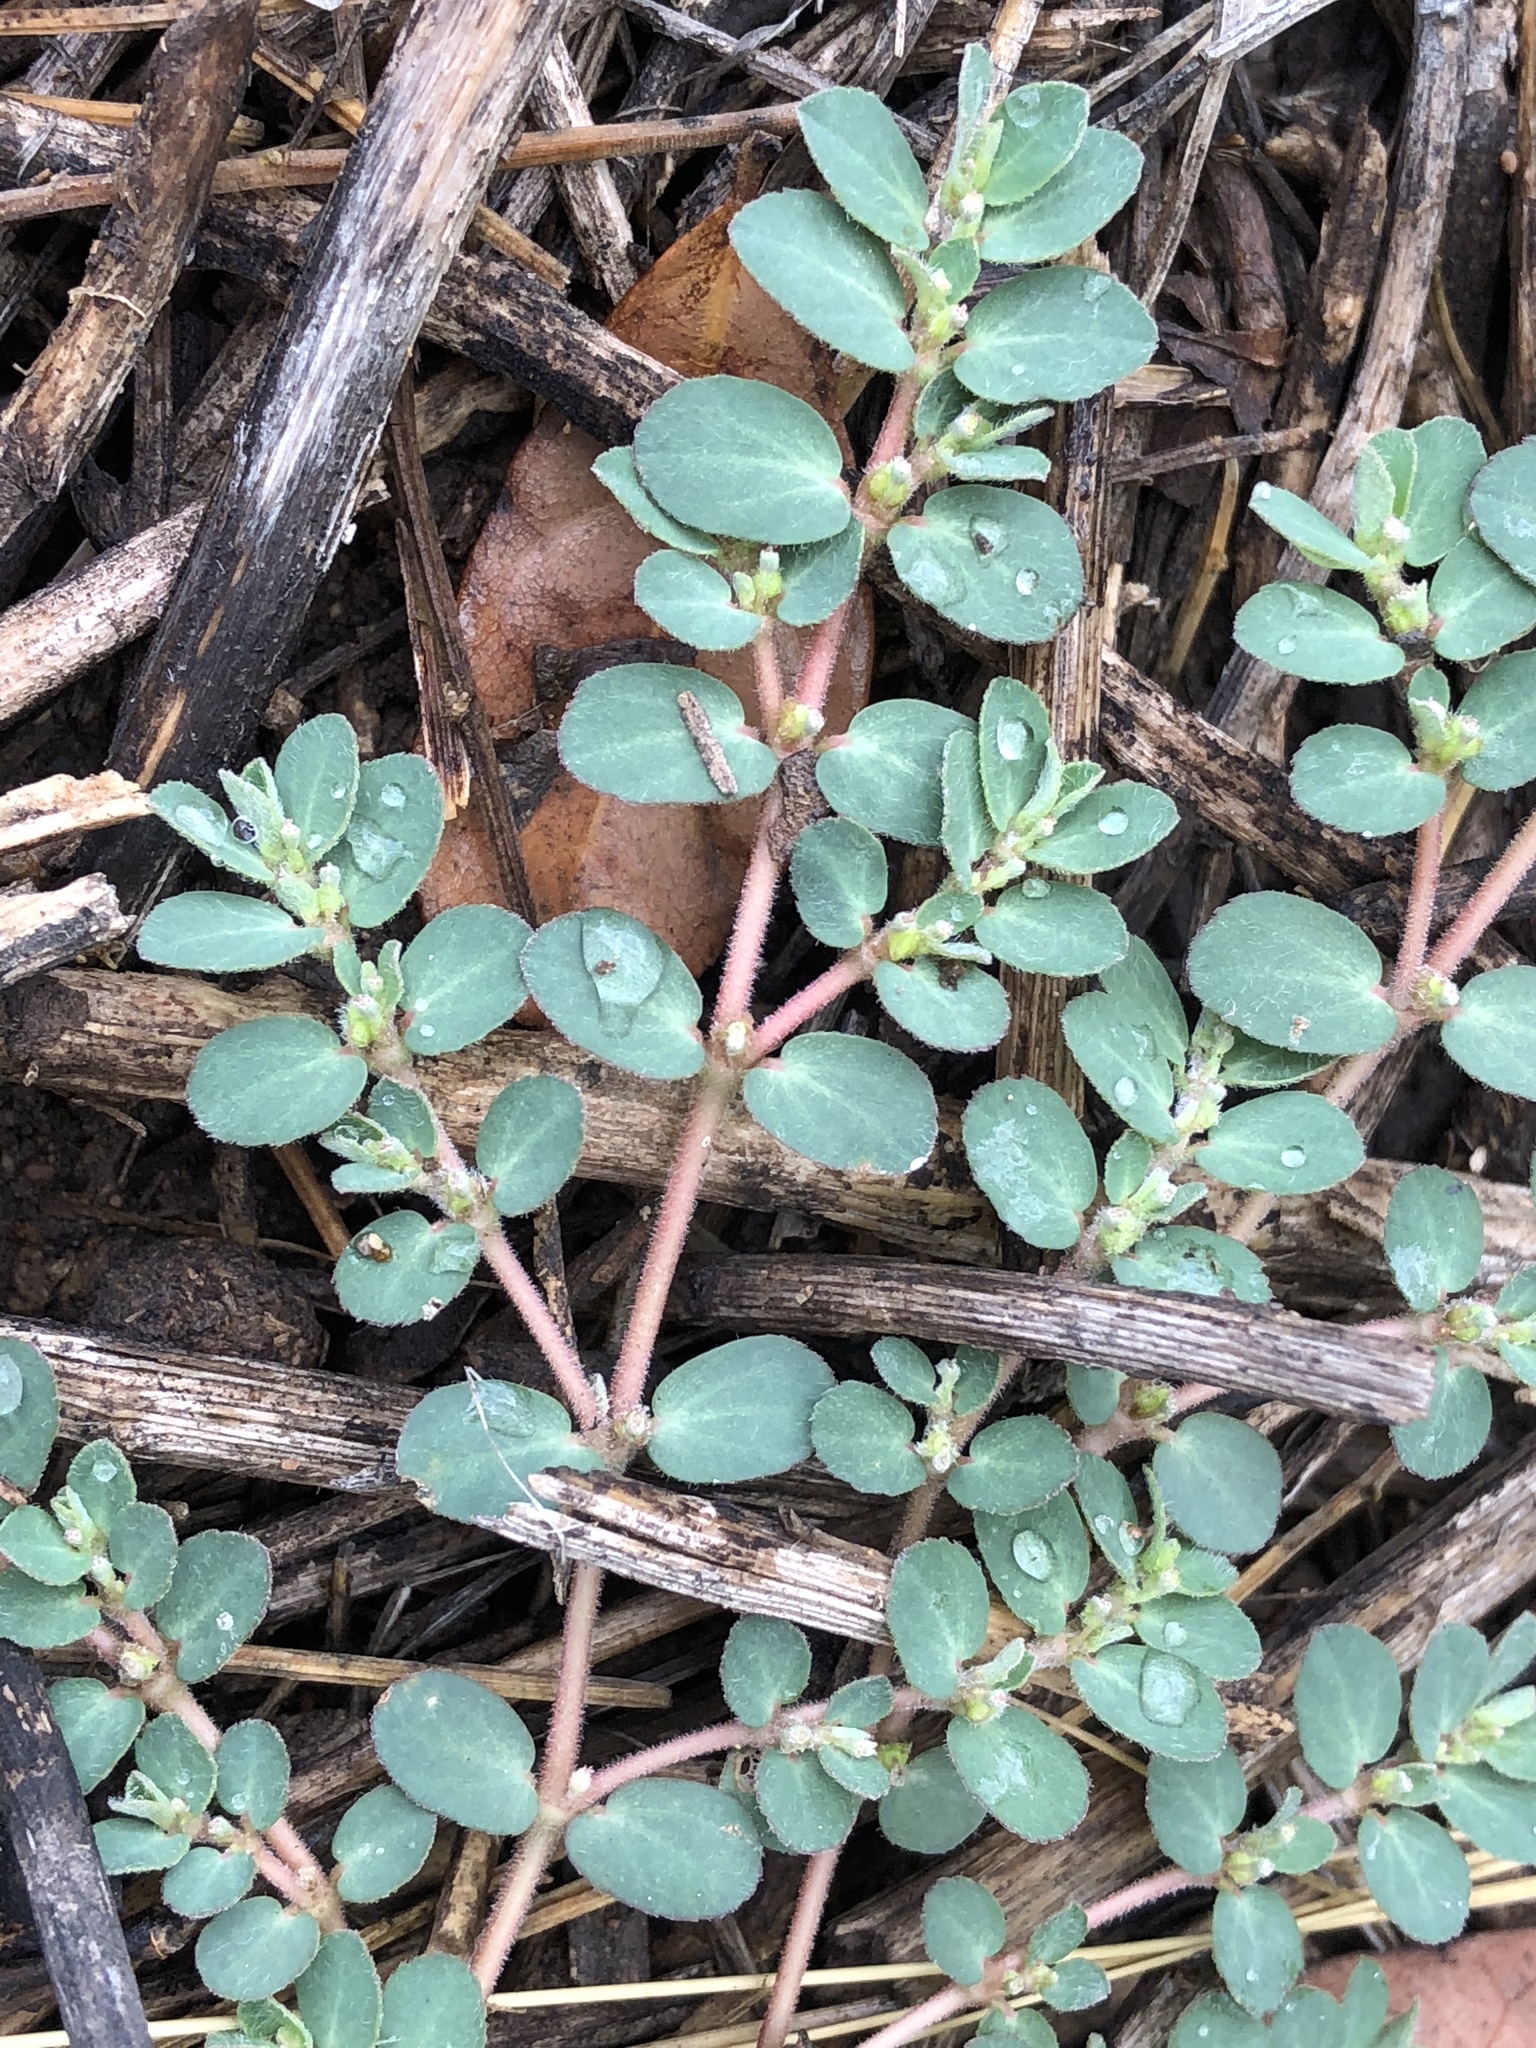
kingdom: Plantae
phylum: Tracheophyta
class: Magnoliopsida
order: Malpighiales
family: Euphorbiaceae
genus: Euphorbia
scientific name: Euphorbia prostrata
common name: Prostrate sandmat
